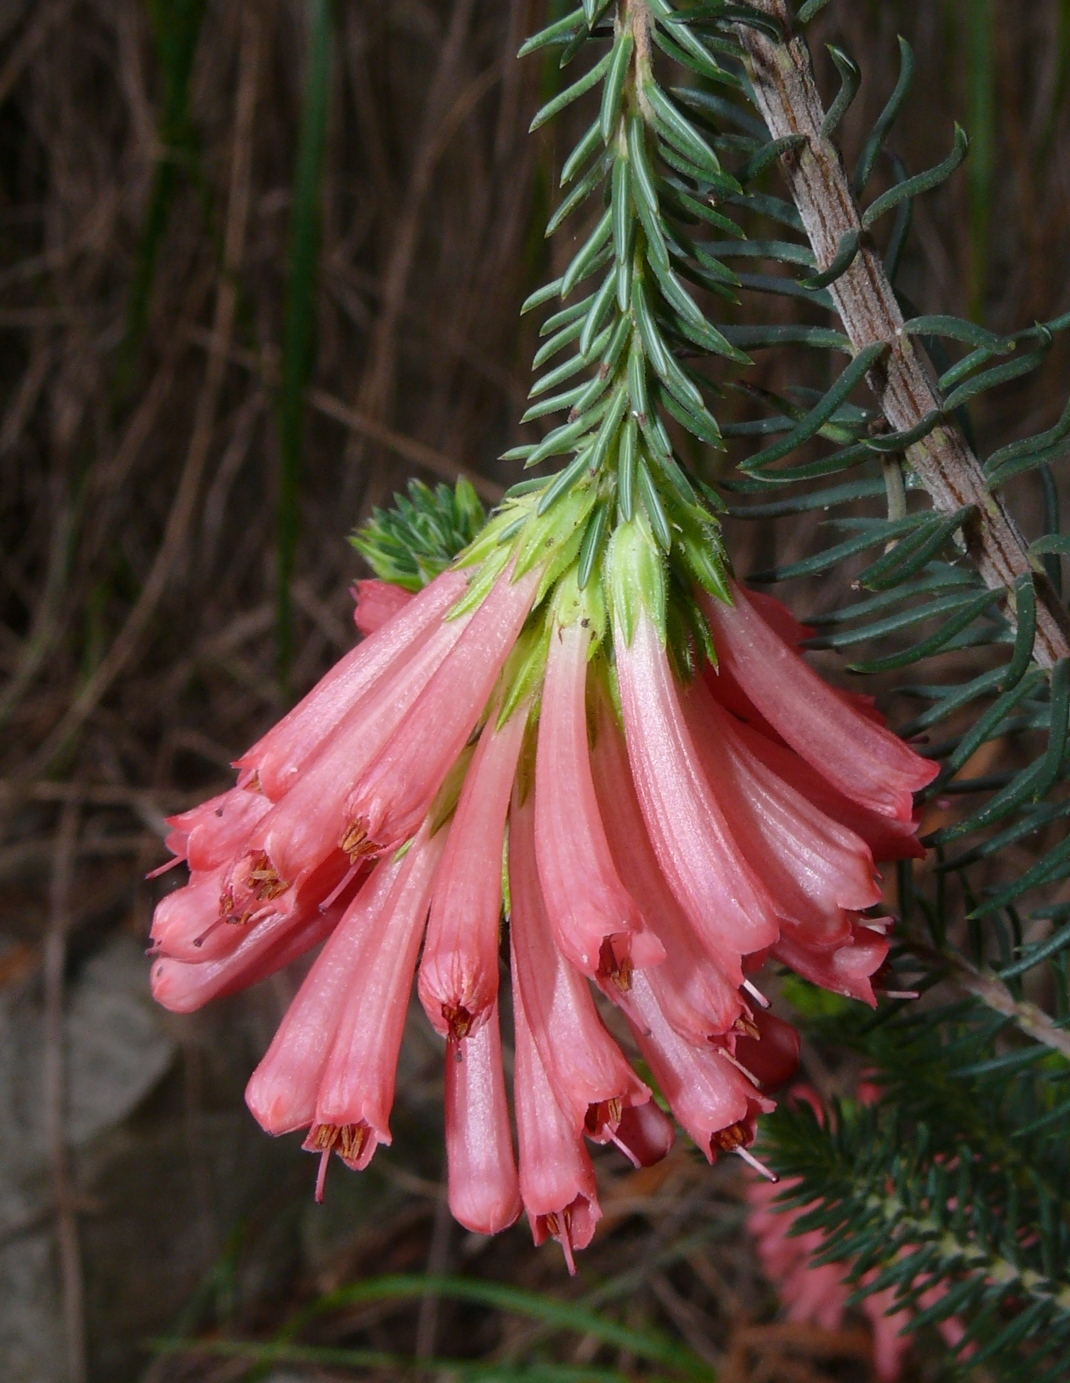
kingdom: Plantae
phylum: Tracheophyta
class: Magnoliopsida
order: Ericales
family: Ericaceae
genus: Erica
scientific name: Erica abietina
